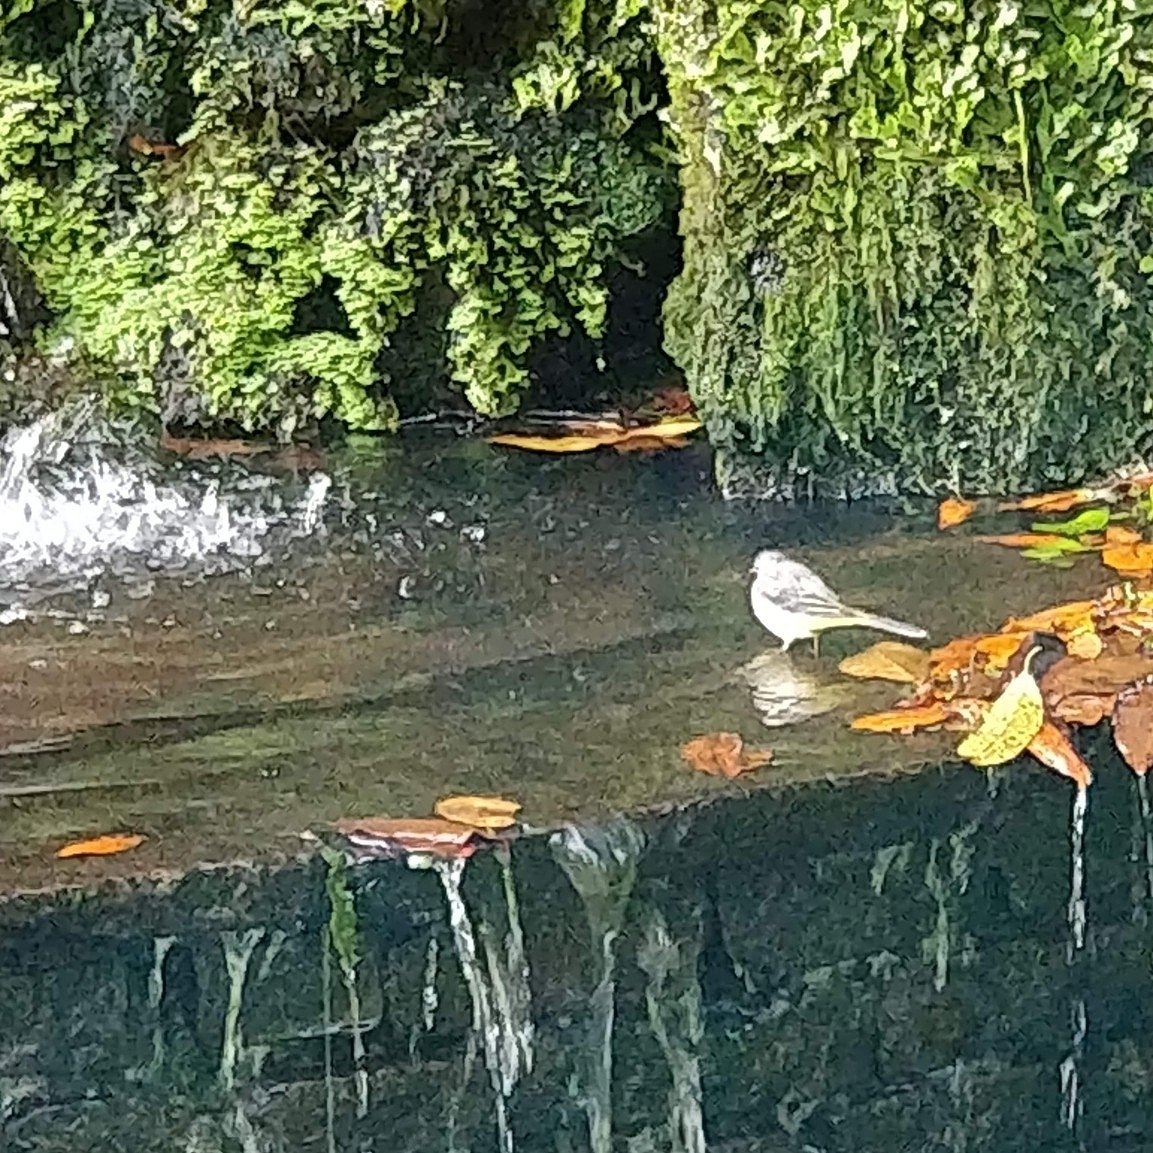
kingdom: Animalia
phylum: Chordata
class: Aves
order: Passeriformes
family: Motacillidae
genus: Motacilla
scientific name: Motacilla cinerea
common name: Grey wagtail
